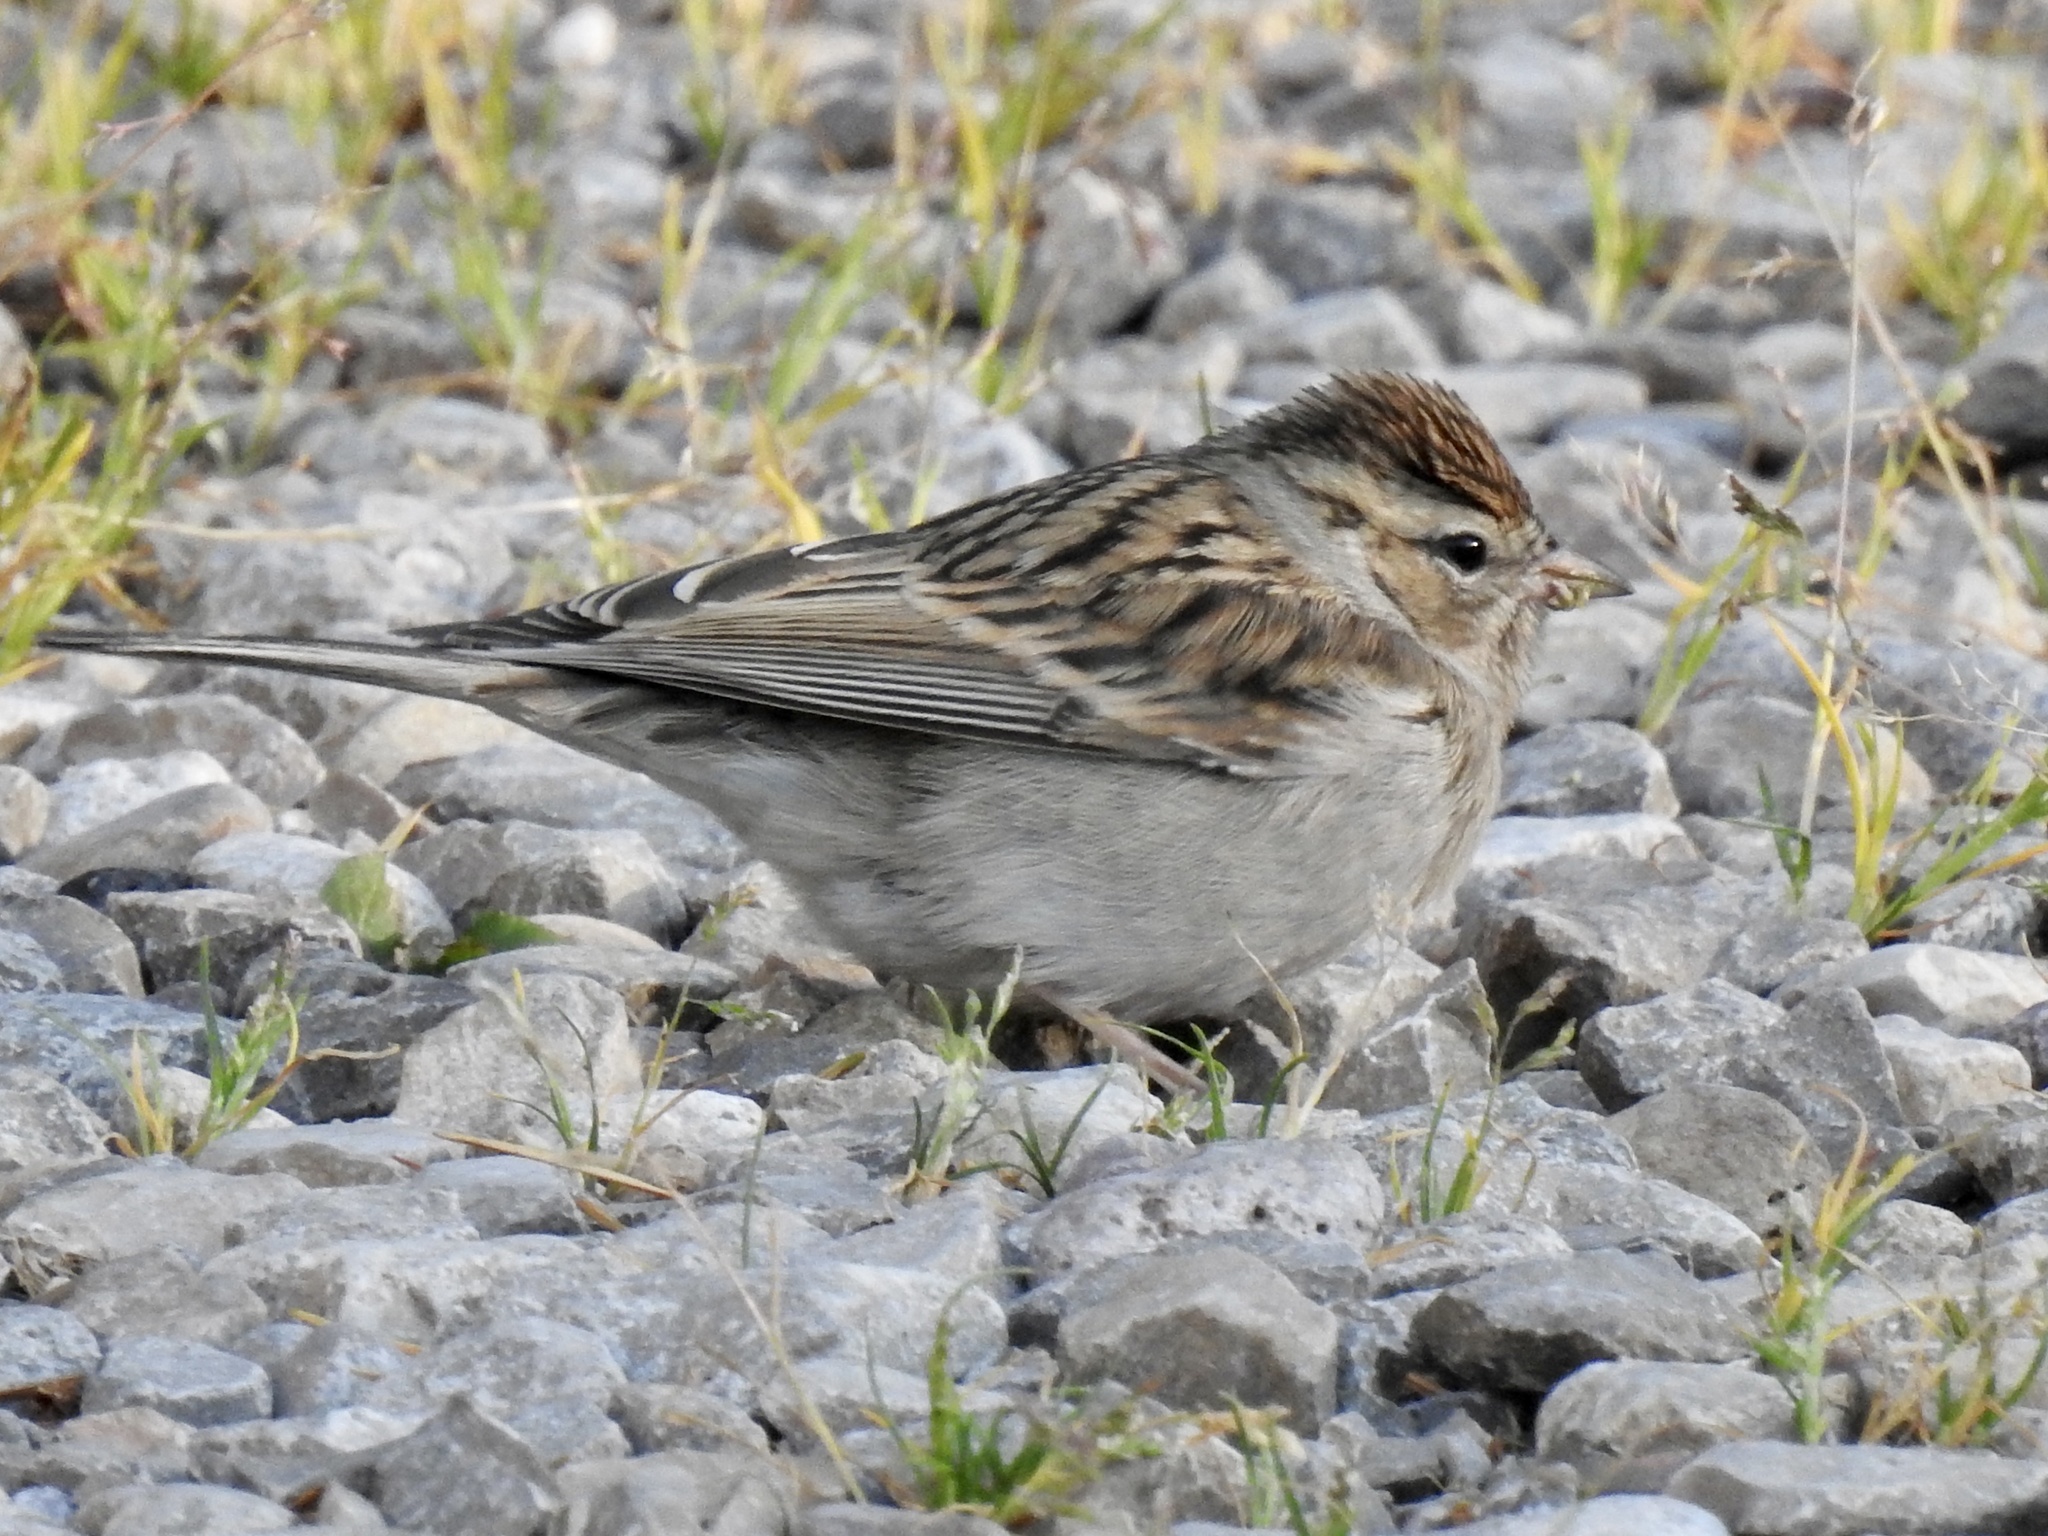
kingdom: Animalia
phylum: Chordata
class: Aves
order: Passeriformes
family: Passerellidae
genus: Spizella
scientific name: Spizella passerina
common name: Chipping sparrow
